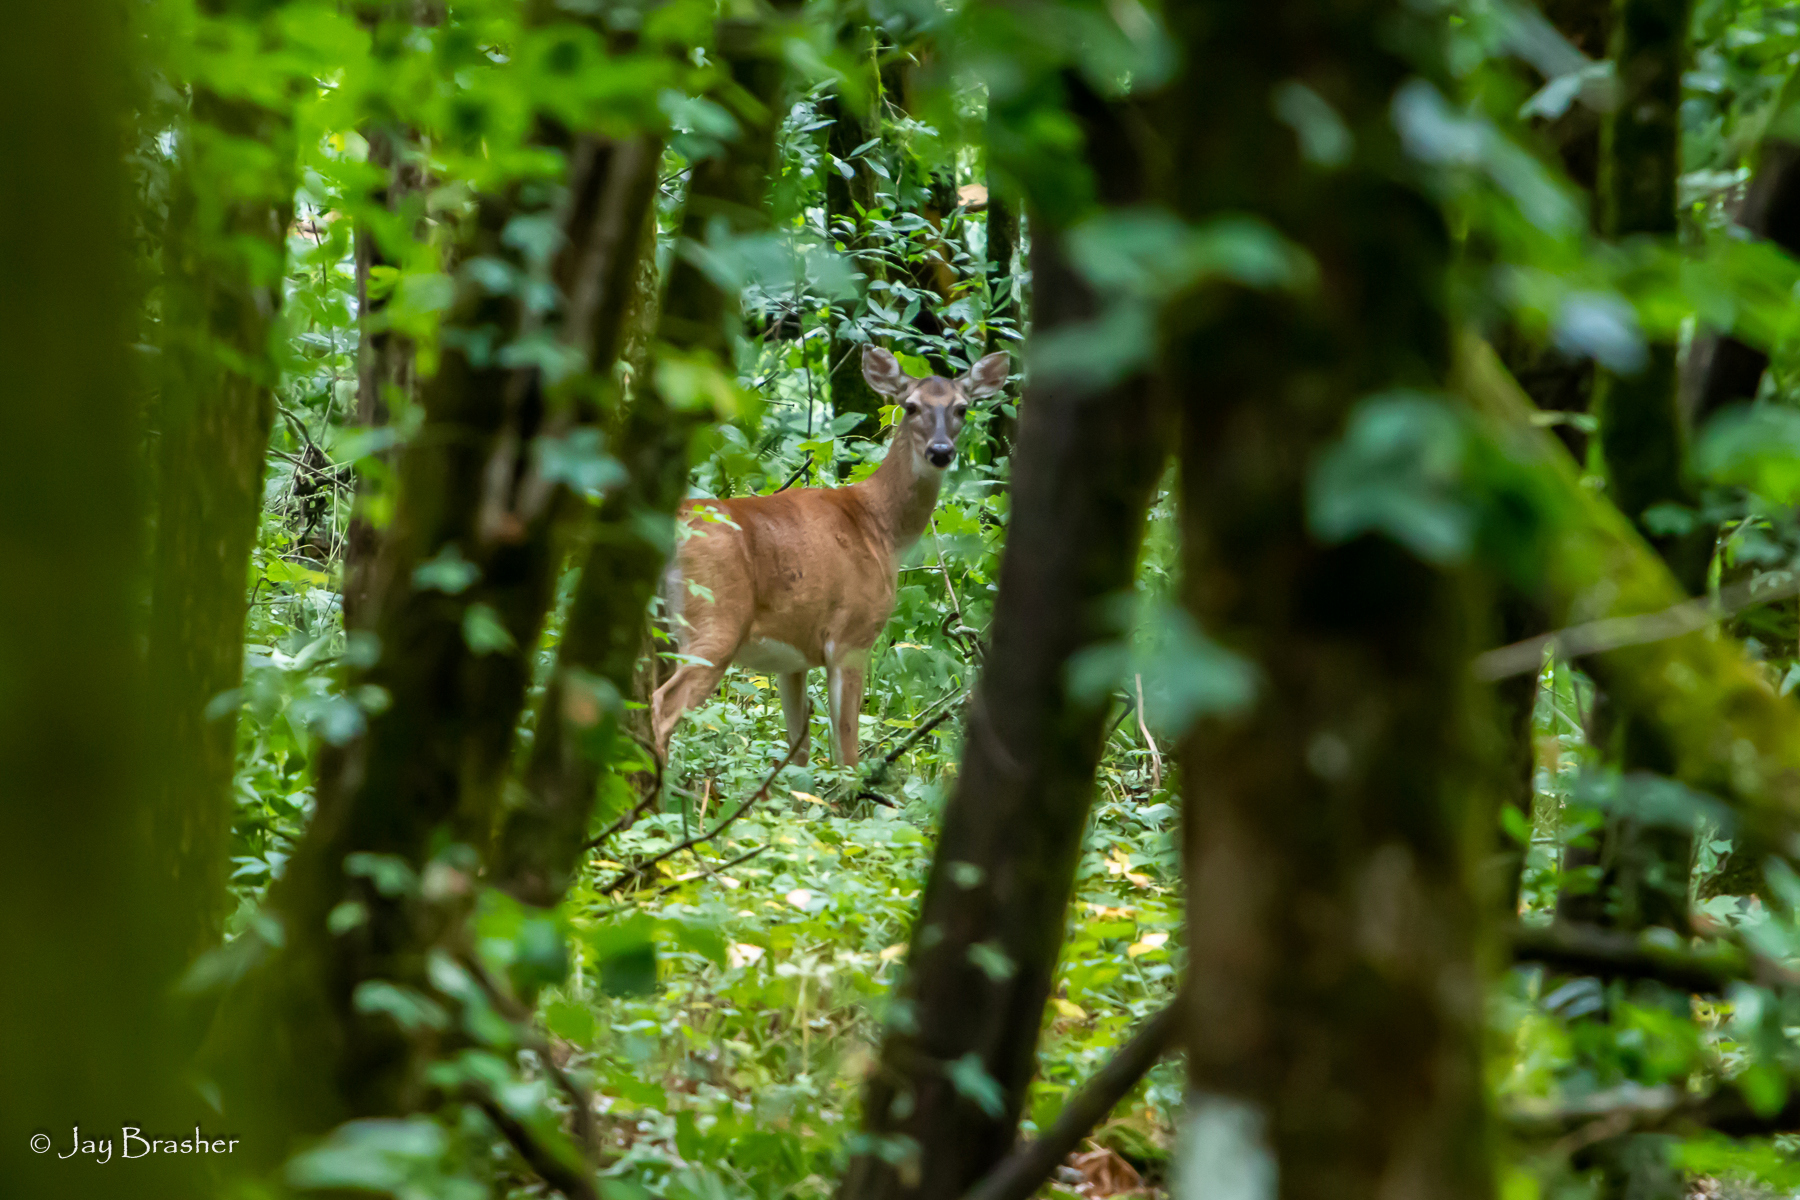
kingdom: Animalia
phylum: Chordata
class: Mammalia
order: Artiodactyla
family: Cervidae
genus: Odocoileus
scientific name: Odocoileus virginianus
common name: White-tailed deer
